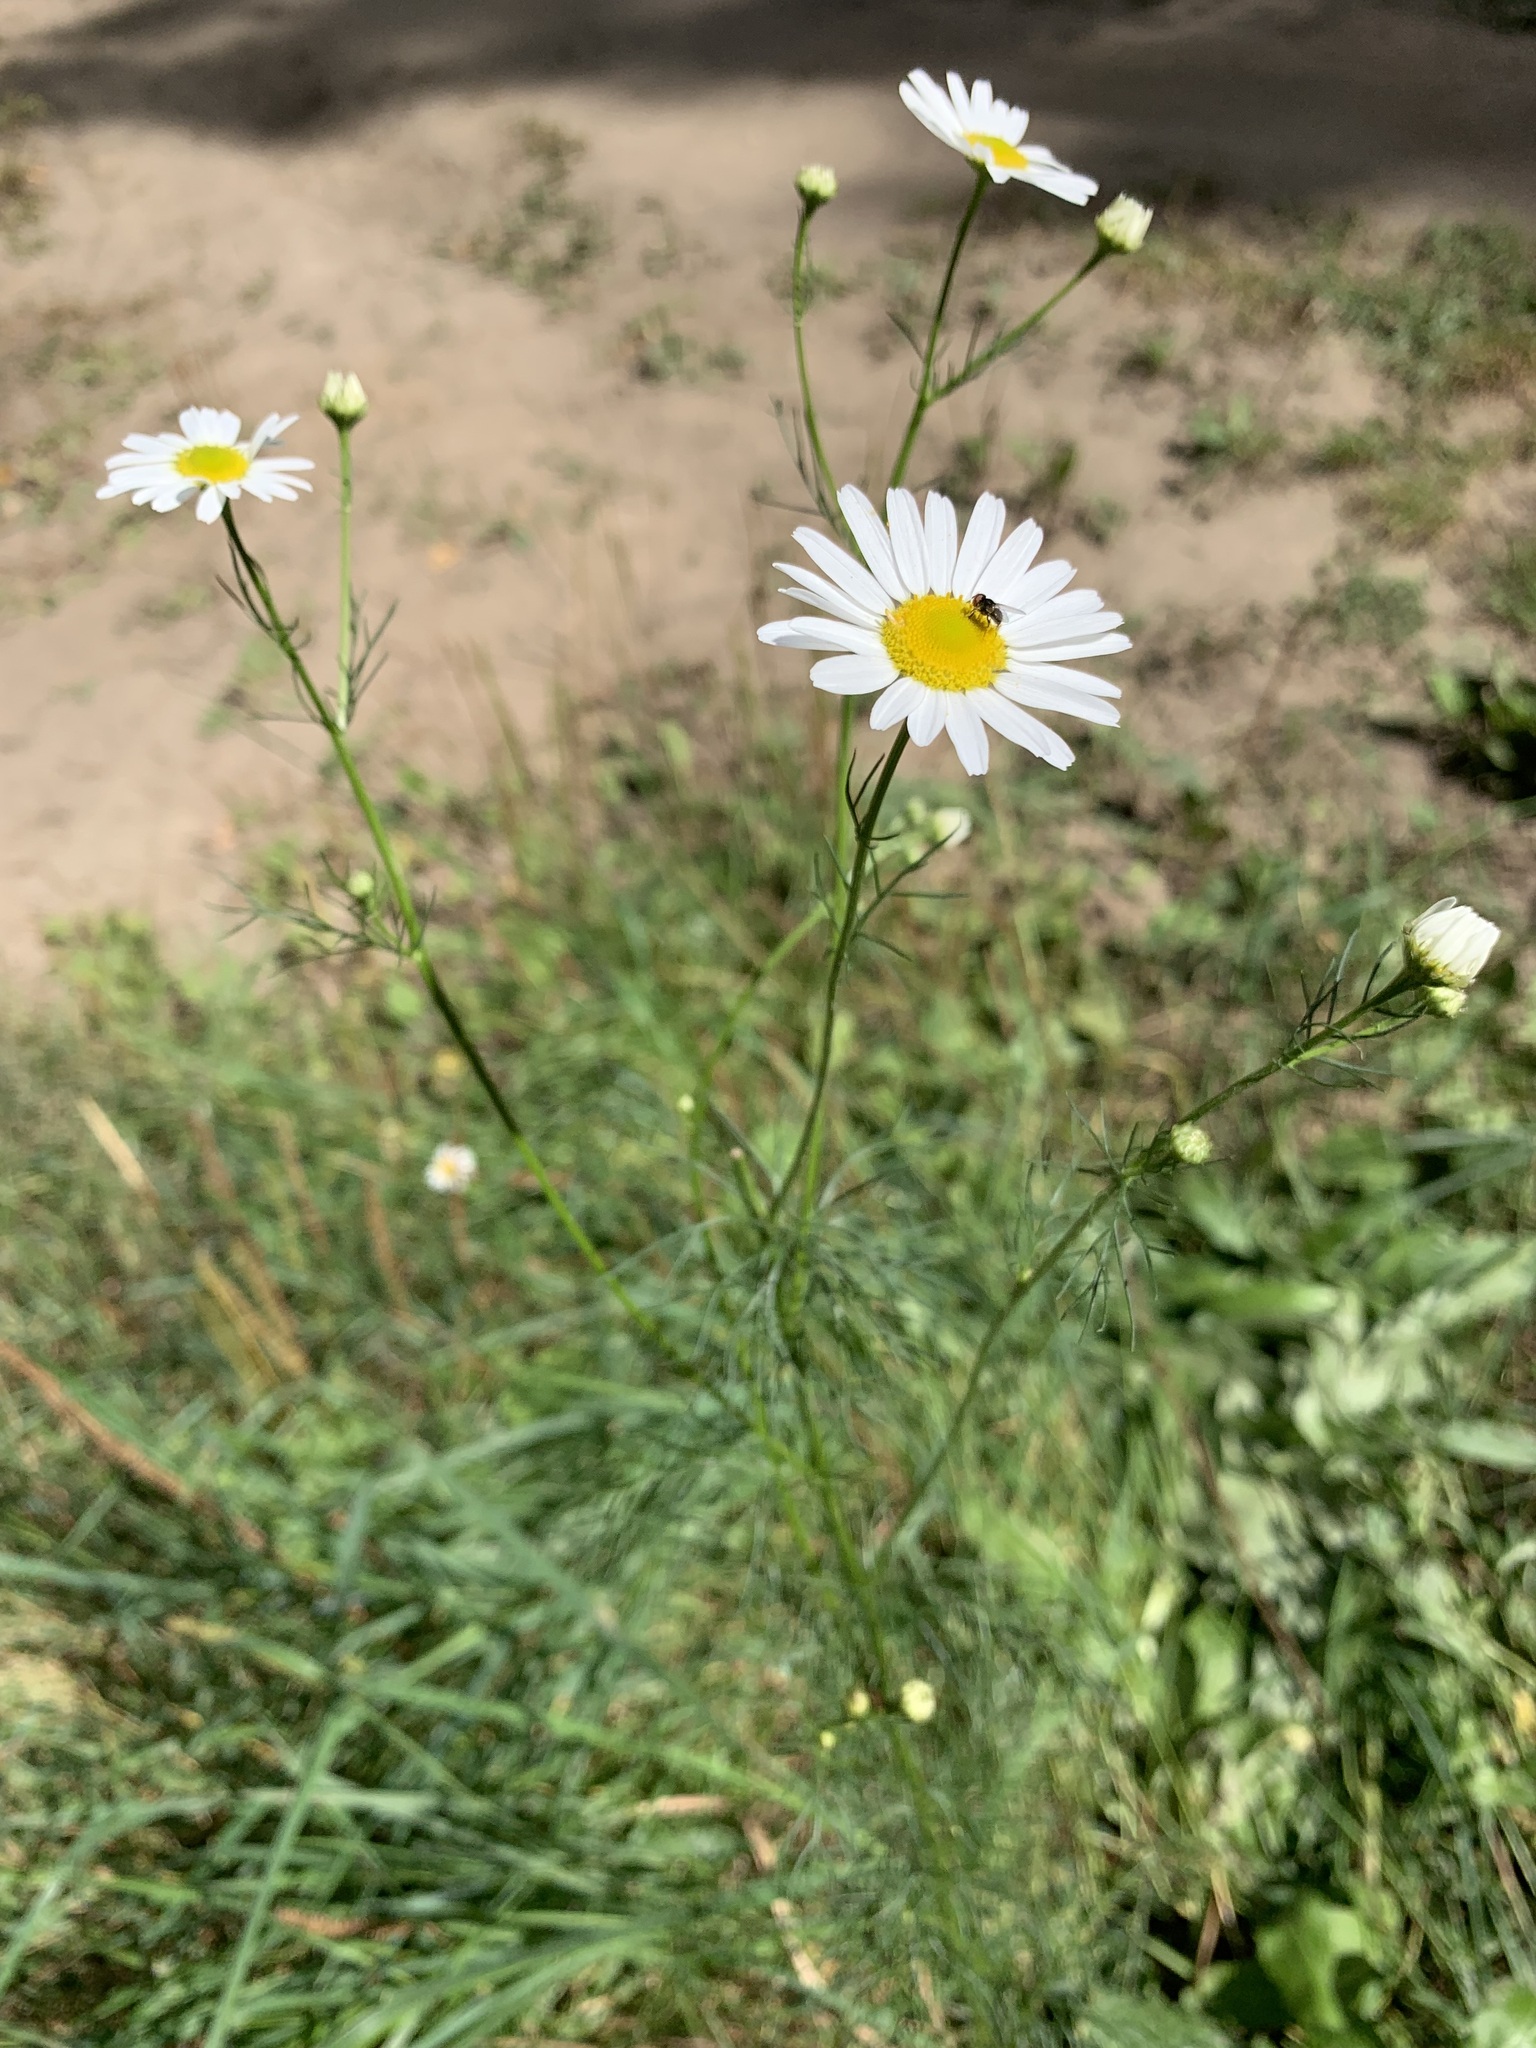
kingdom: Plantae
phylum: Tracheophyta
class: Magnoliopsida
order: Asterales
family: Asteraceae
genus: Tripleurospermum
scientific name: Tripleurospermum inodorum
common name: Scentless mayweed
